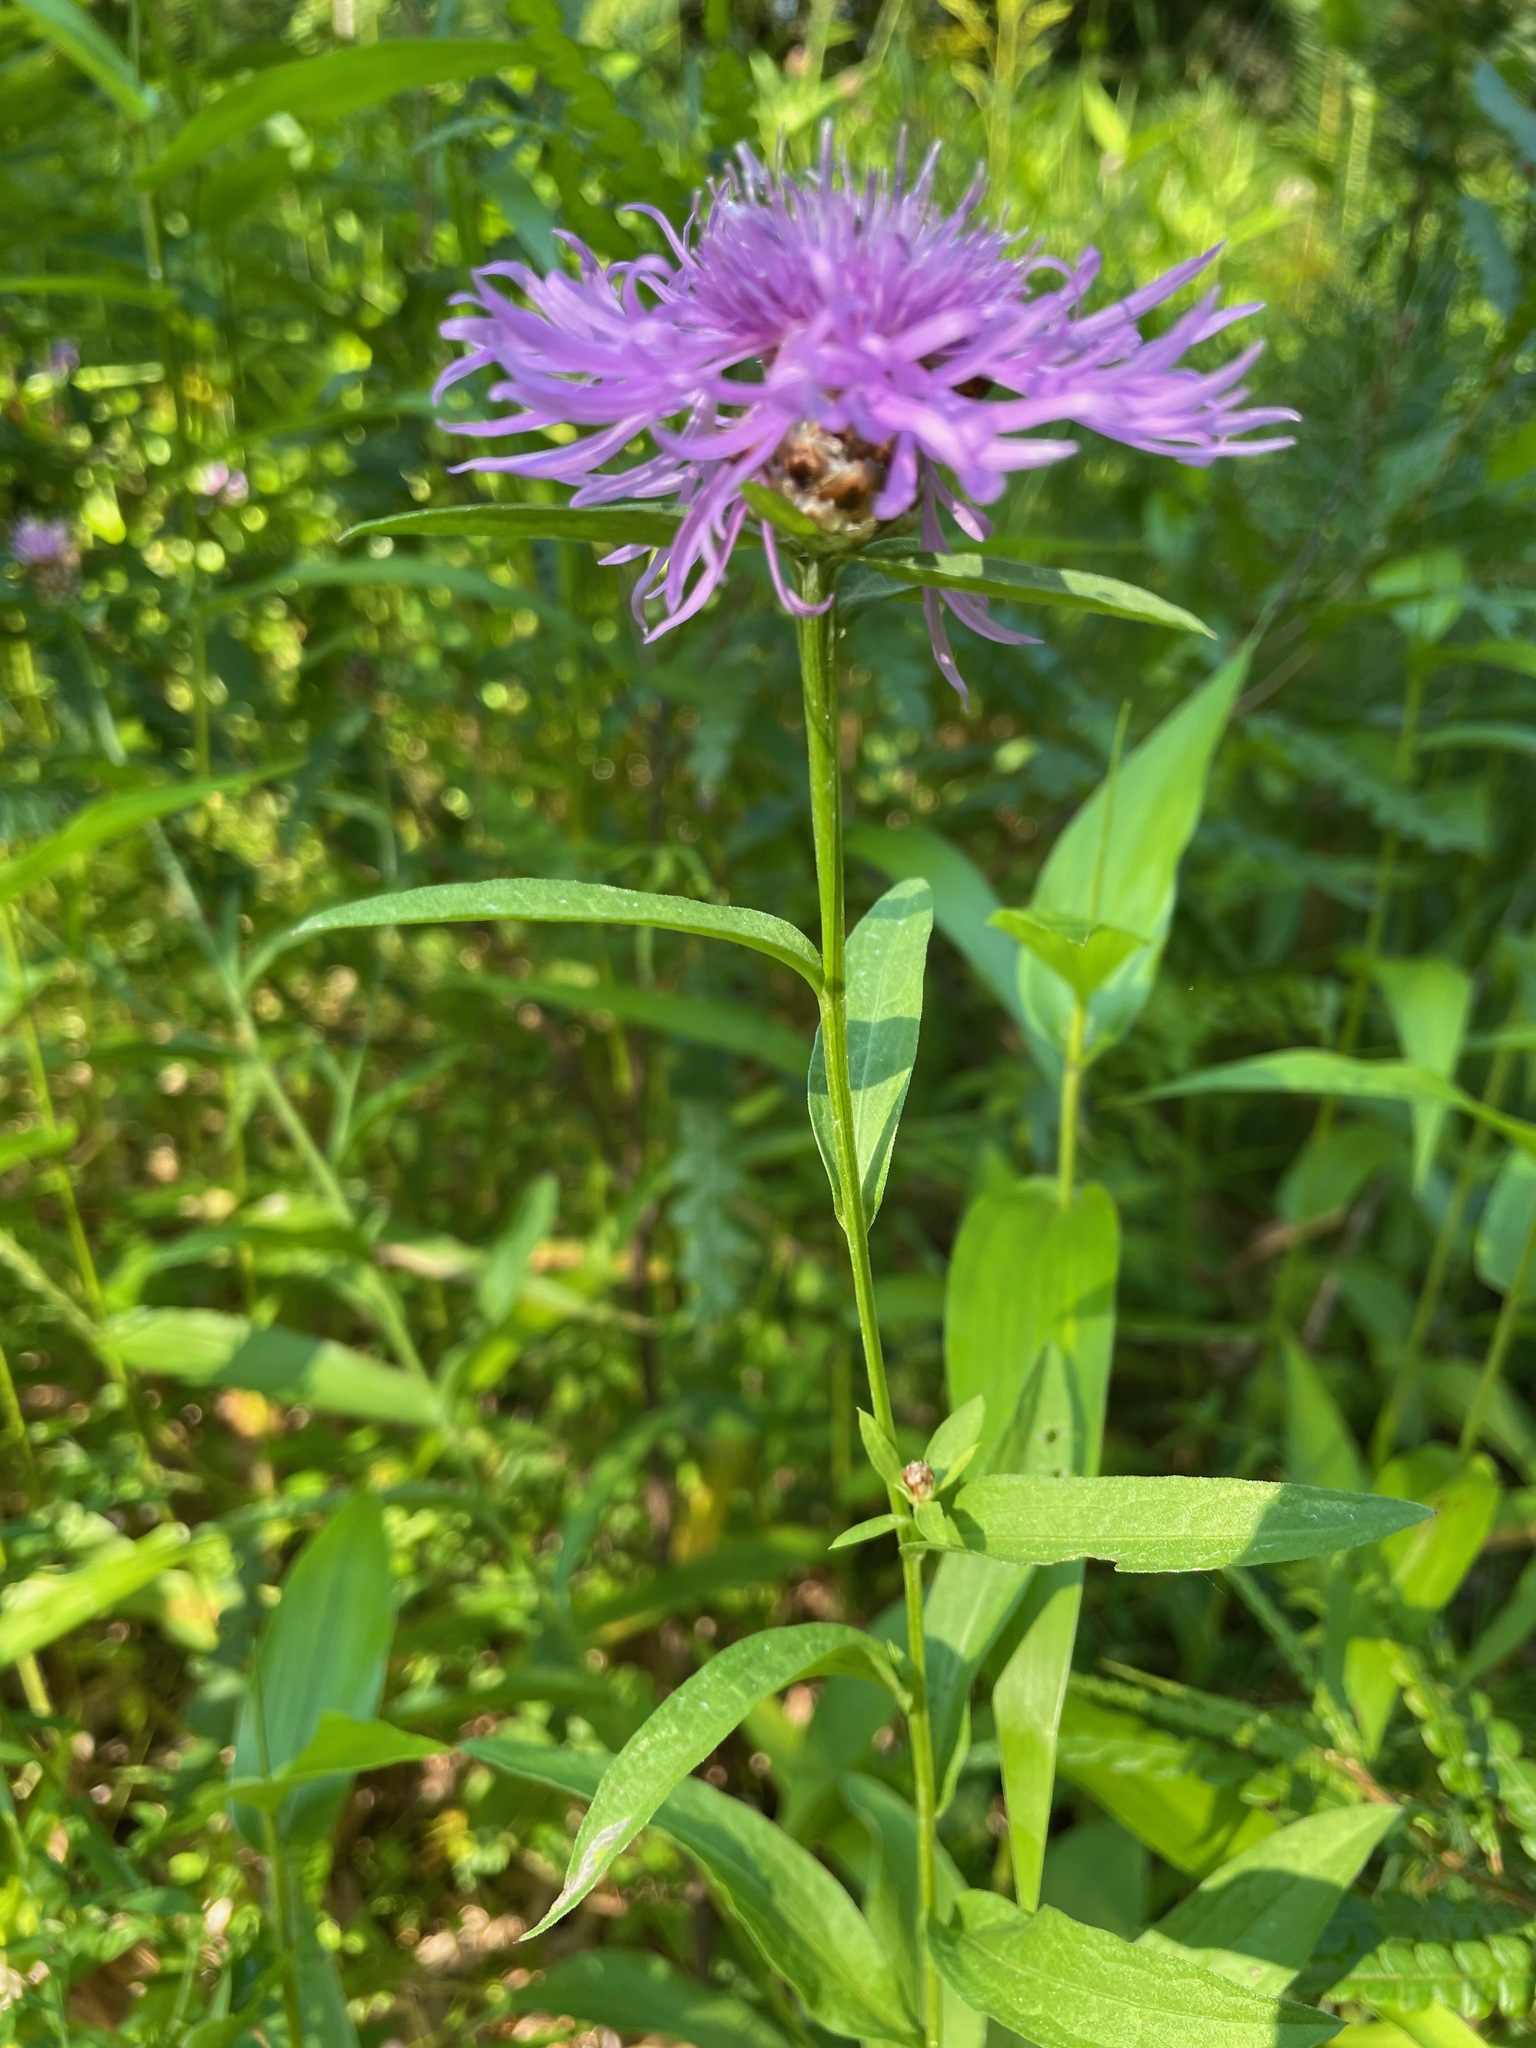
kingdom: Plantae
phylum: Tracheophyta
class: Magnoliopsida
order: Asterales
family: Asteraceae
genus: Centaurea
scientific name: Centaurea jacea
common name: Brown knapweed
